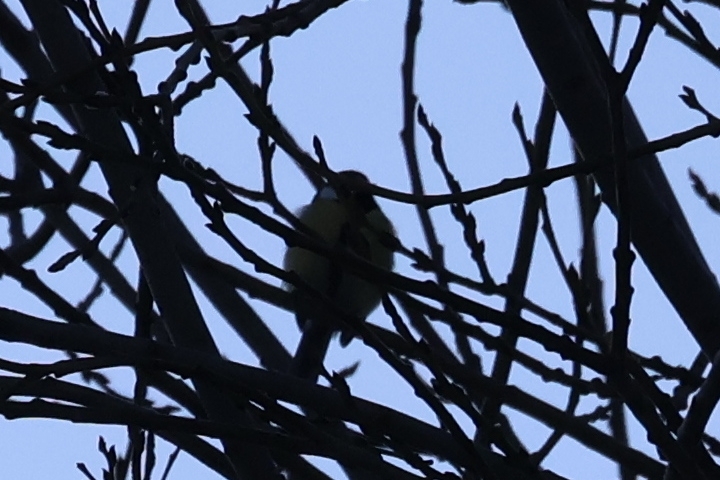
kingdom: Animalia
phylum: Chordata
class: Aves
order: Passeriformes
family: Paridae
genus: Parus
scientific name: Parus major
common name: Great tit
